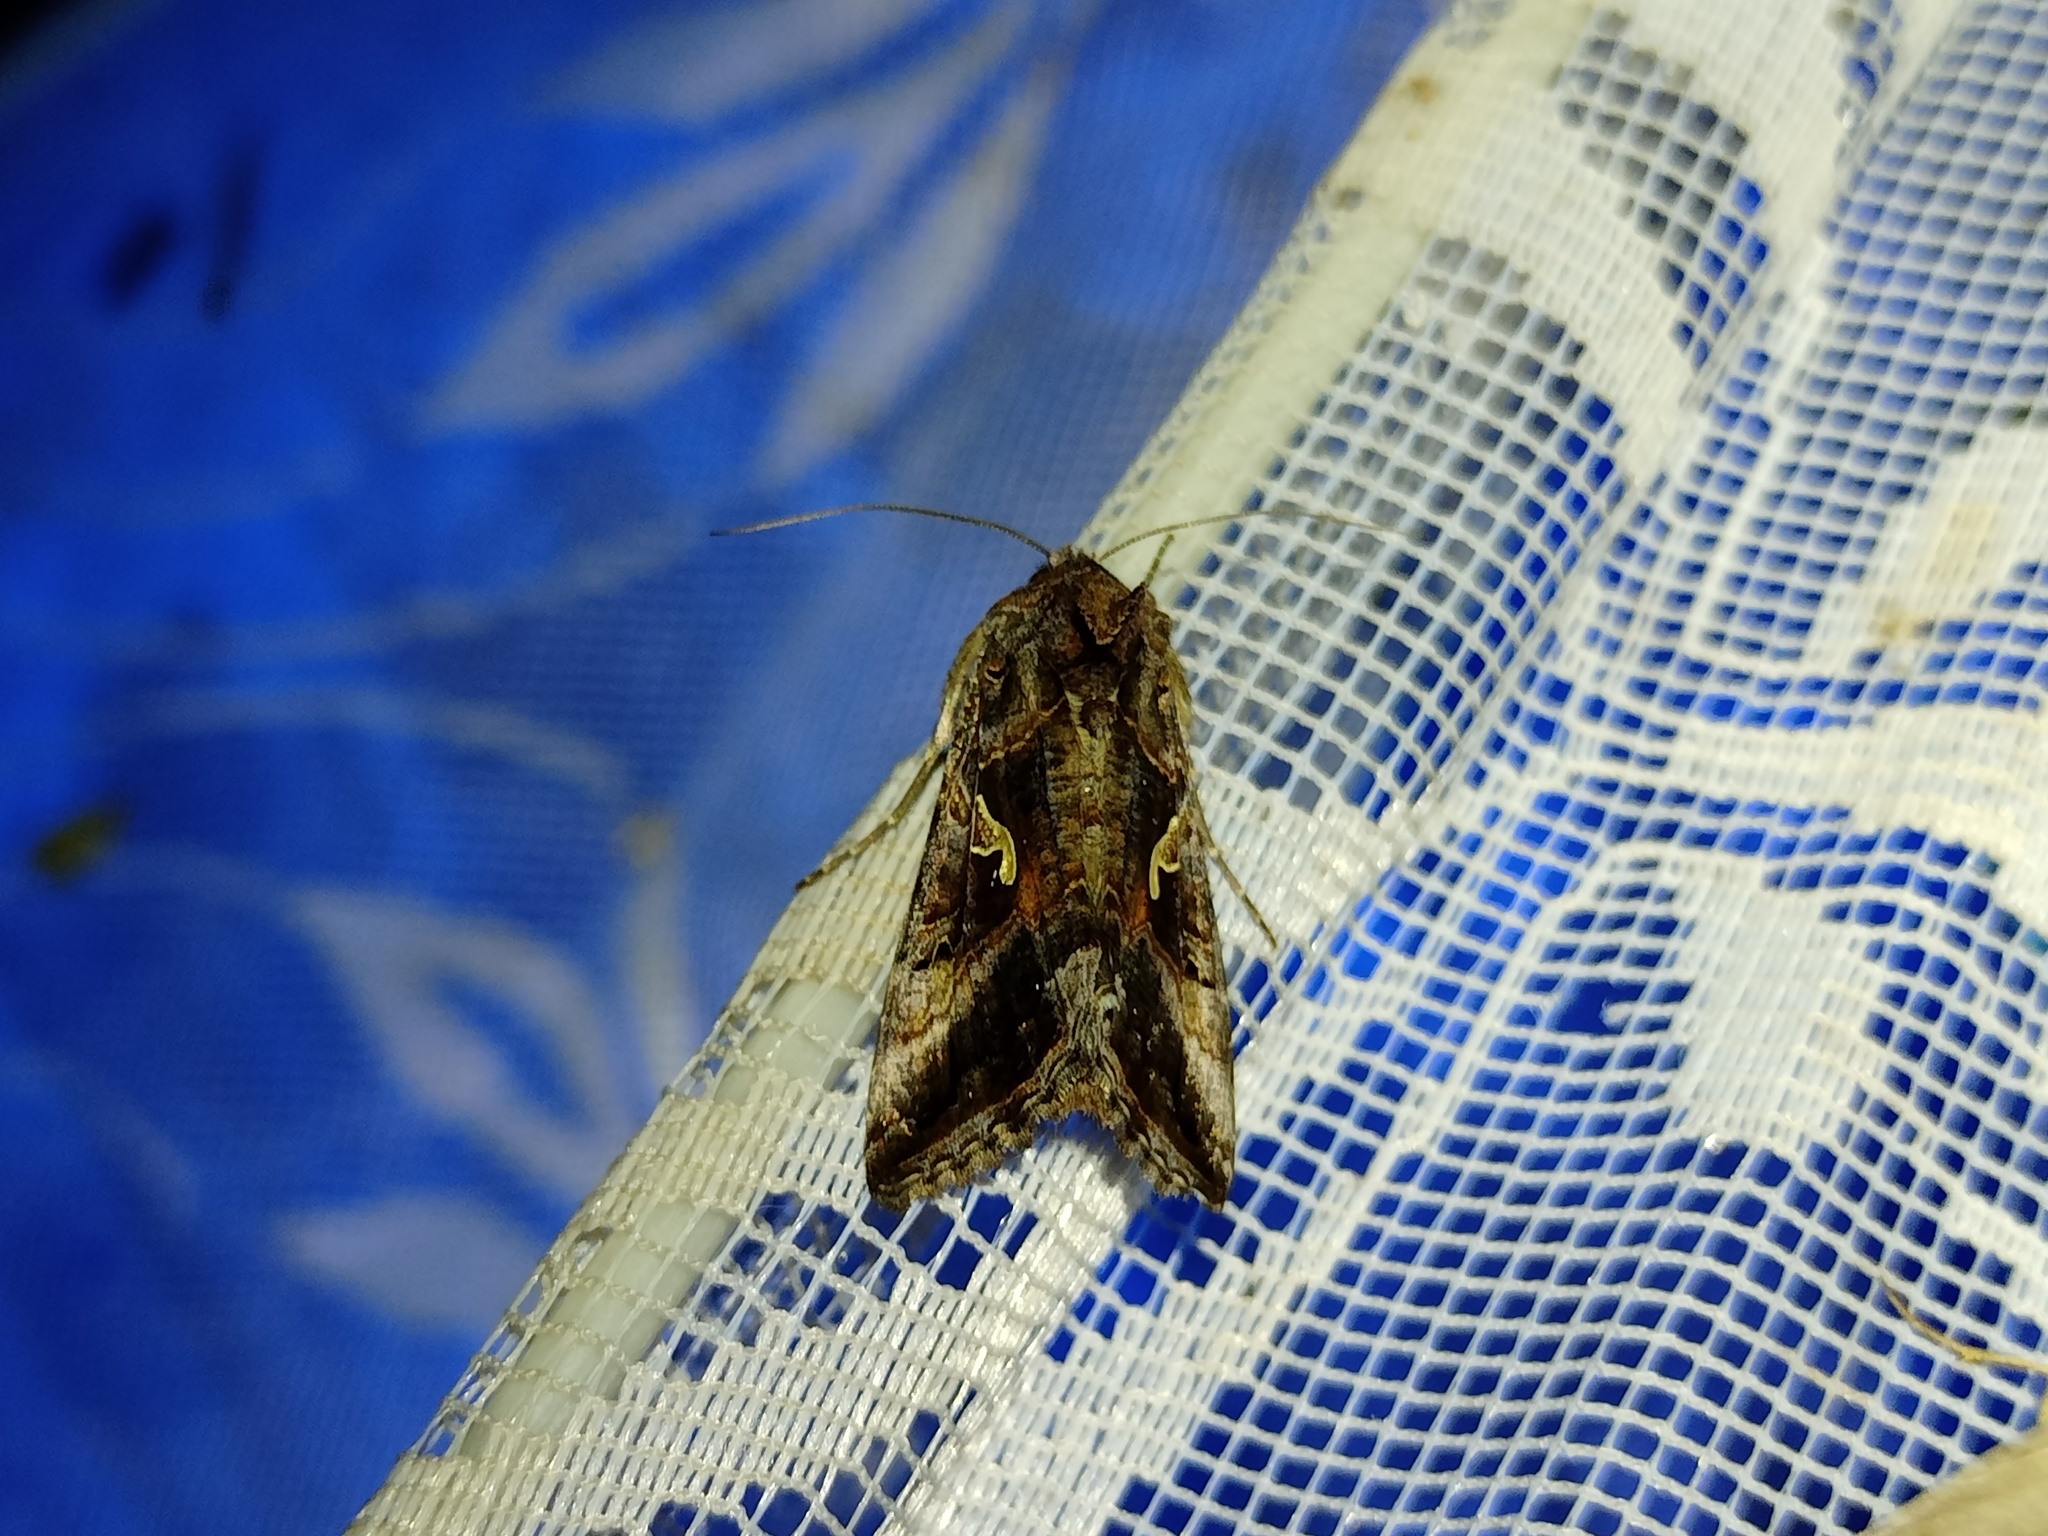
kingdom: Animalia
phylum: Arthropoda
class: Insecta
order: Lepidoptera
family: Noctuidae
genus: Autographa
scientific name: Autographa gamma
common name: Silver y
